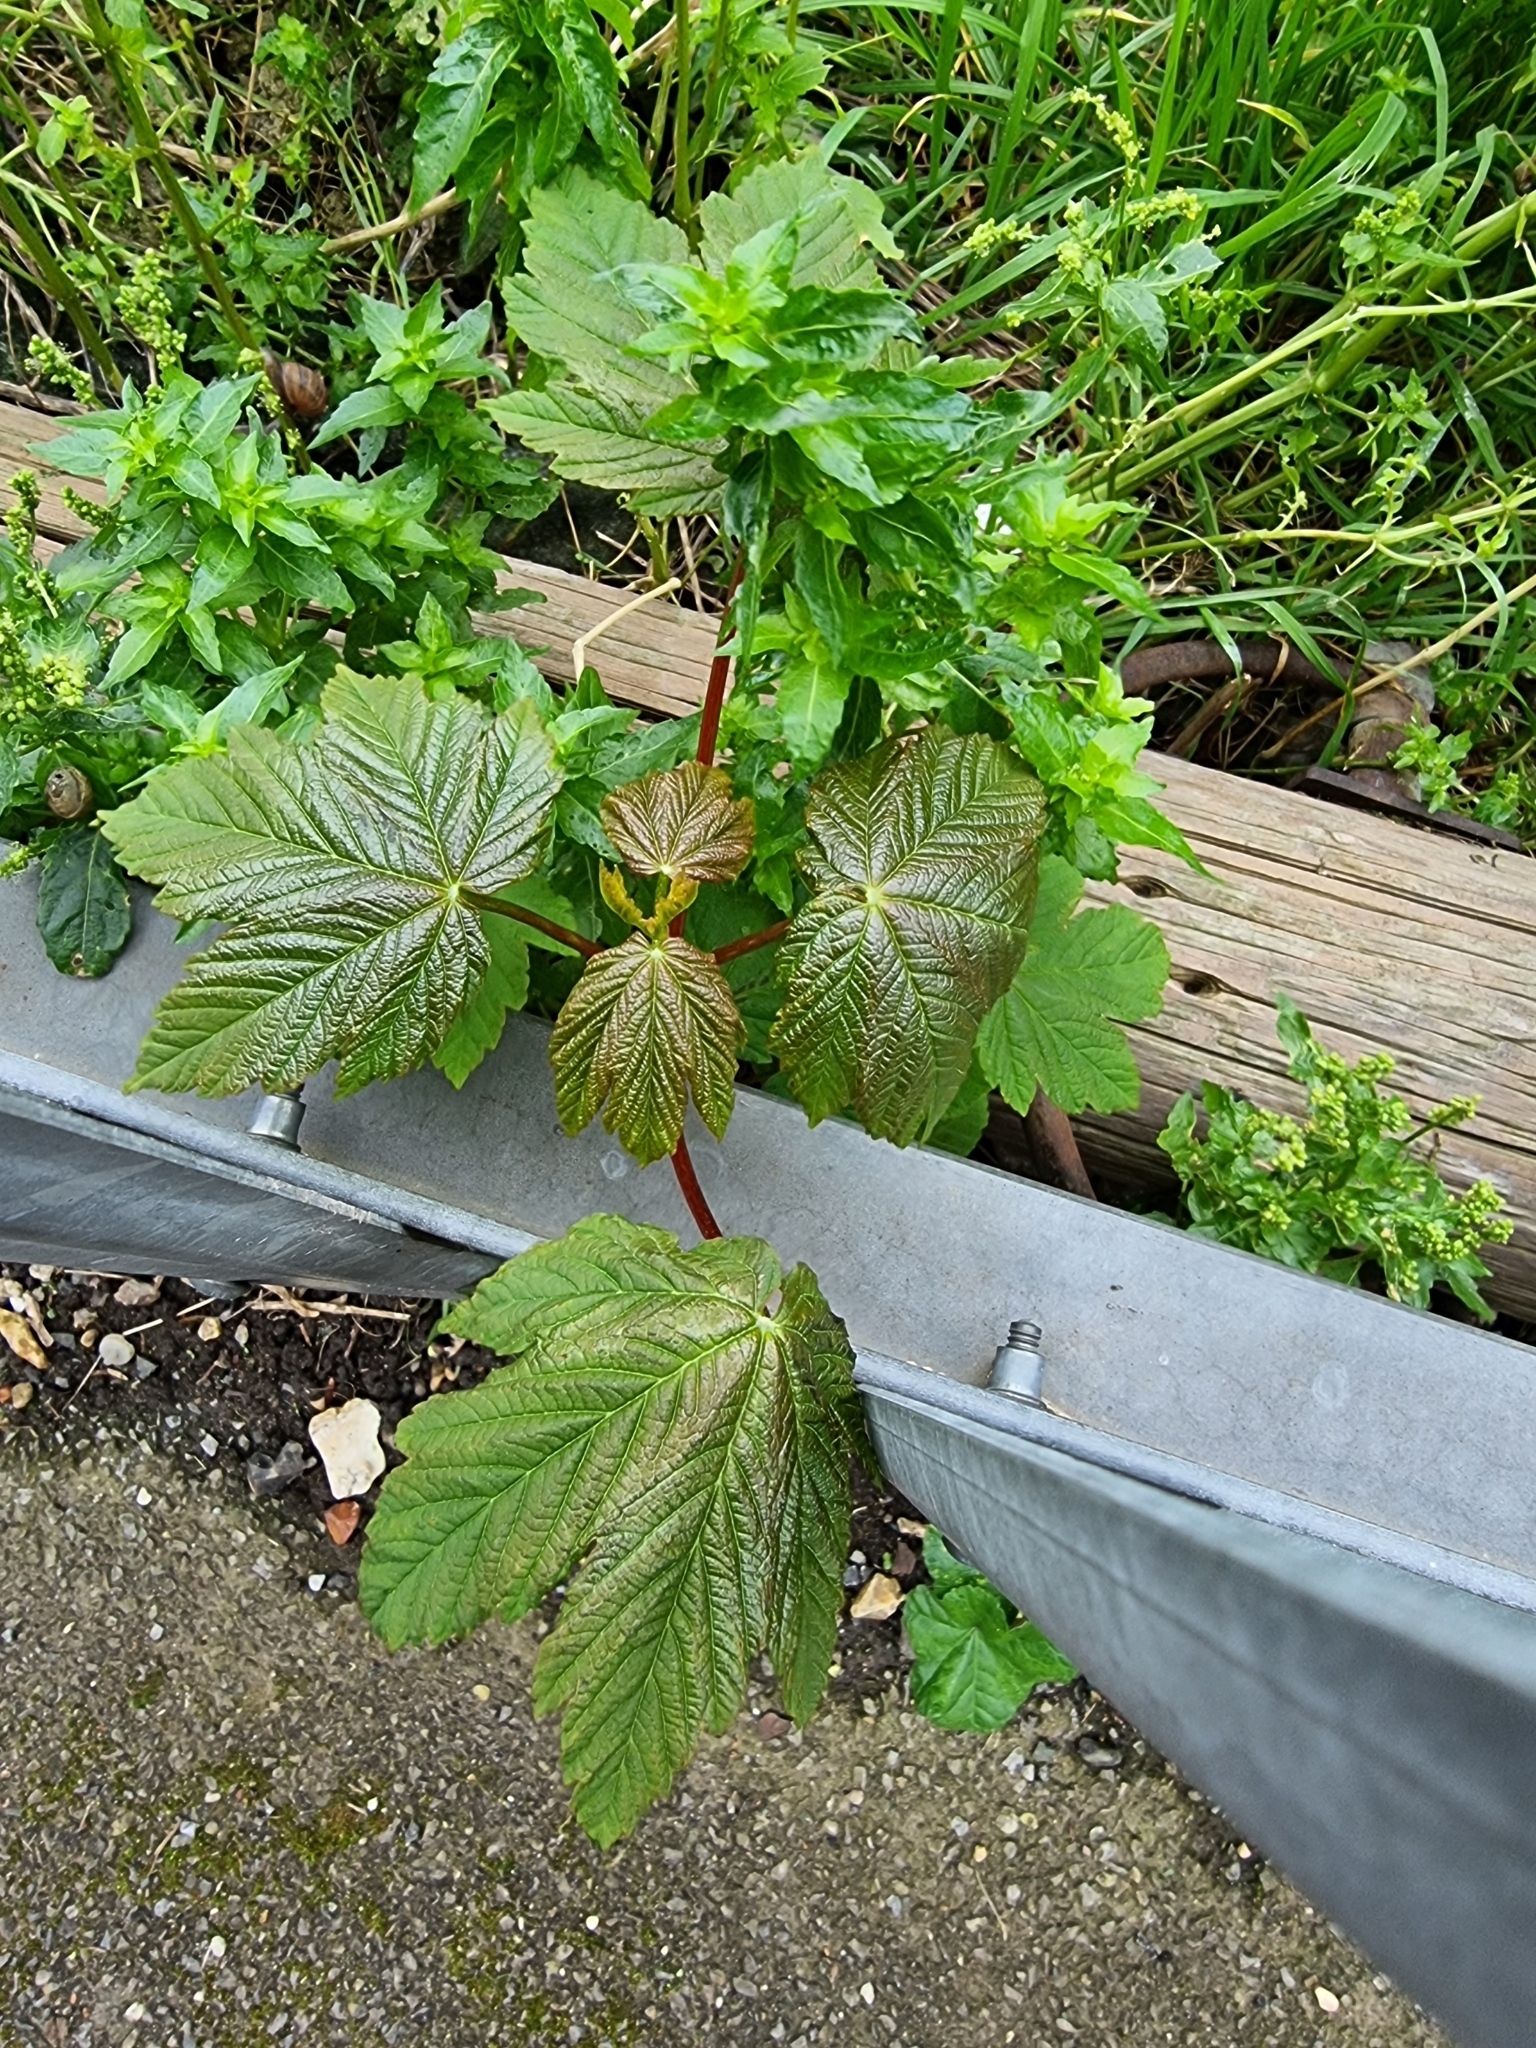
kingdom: Plantae
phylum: Tracheophyta
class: Magnoliopsida
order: Sapindales
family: Sapindaceae
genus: Acer
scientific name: Acer pseudoplatanus
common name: Sycamore
